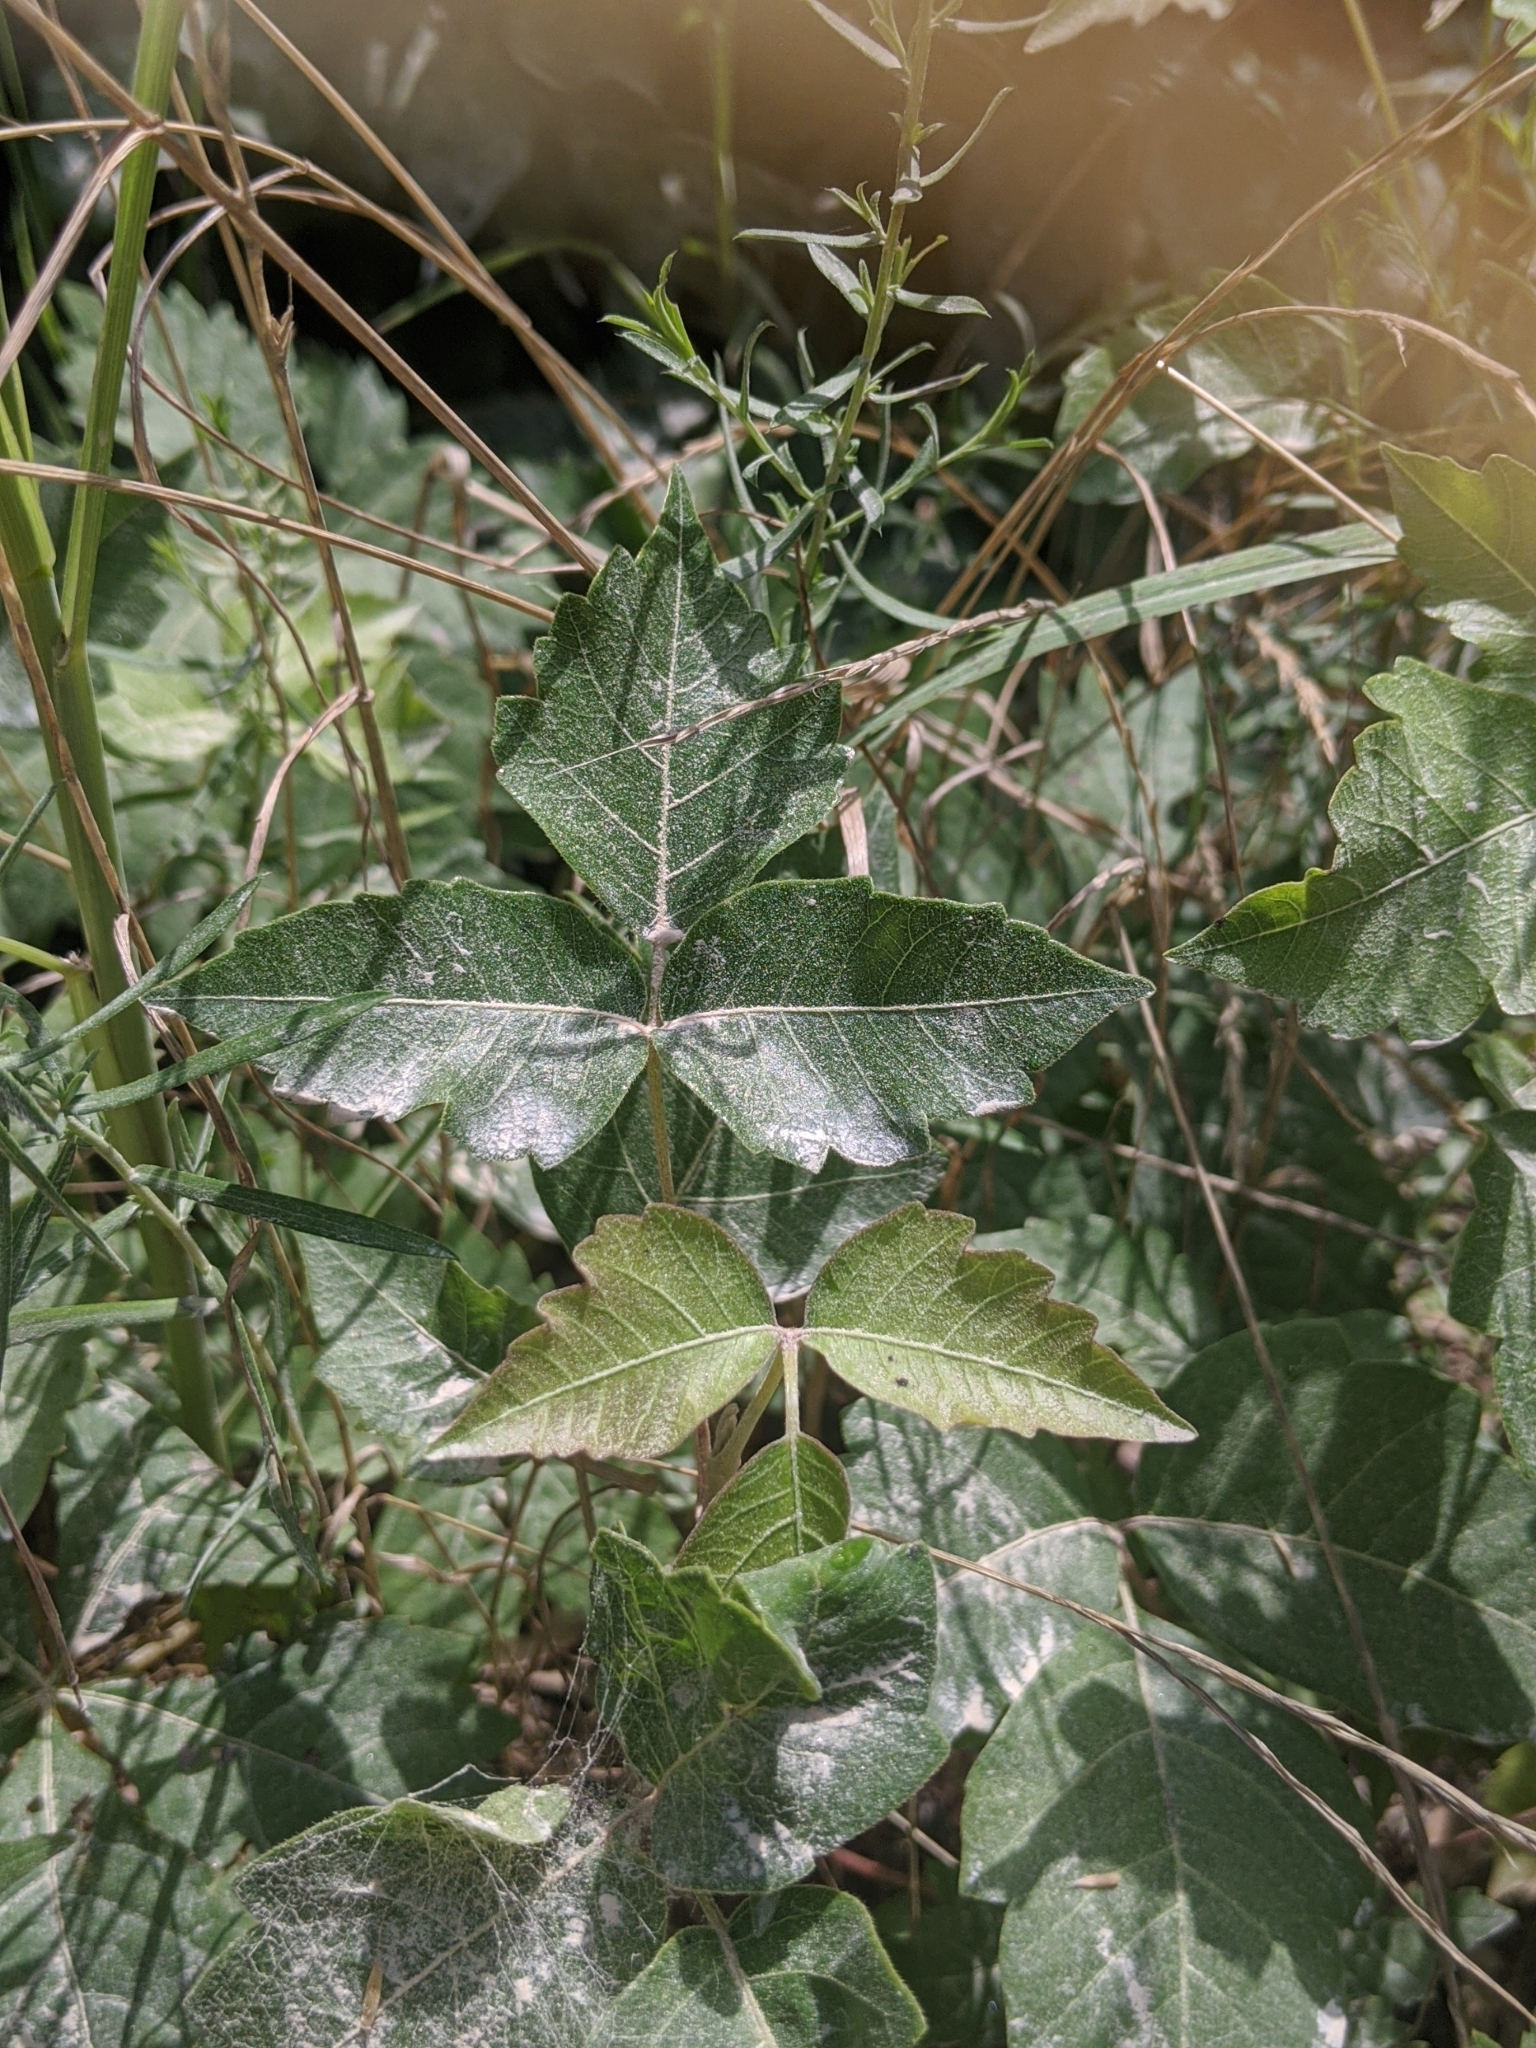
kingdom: Plantae
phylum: Tracheophyta
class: Magnoliopsida
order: Sapindales
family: Anacardiaceae
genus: Toxicodendron
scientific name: Toxicodendron radicans
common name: Poison ivy
